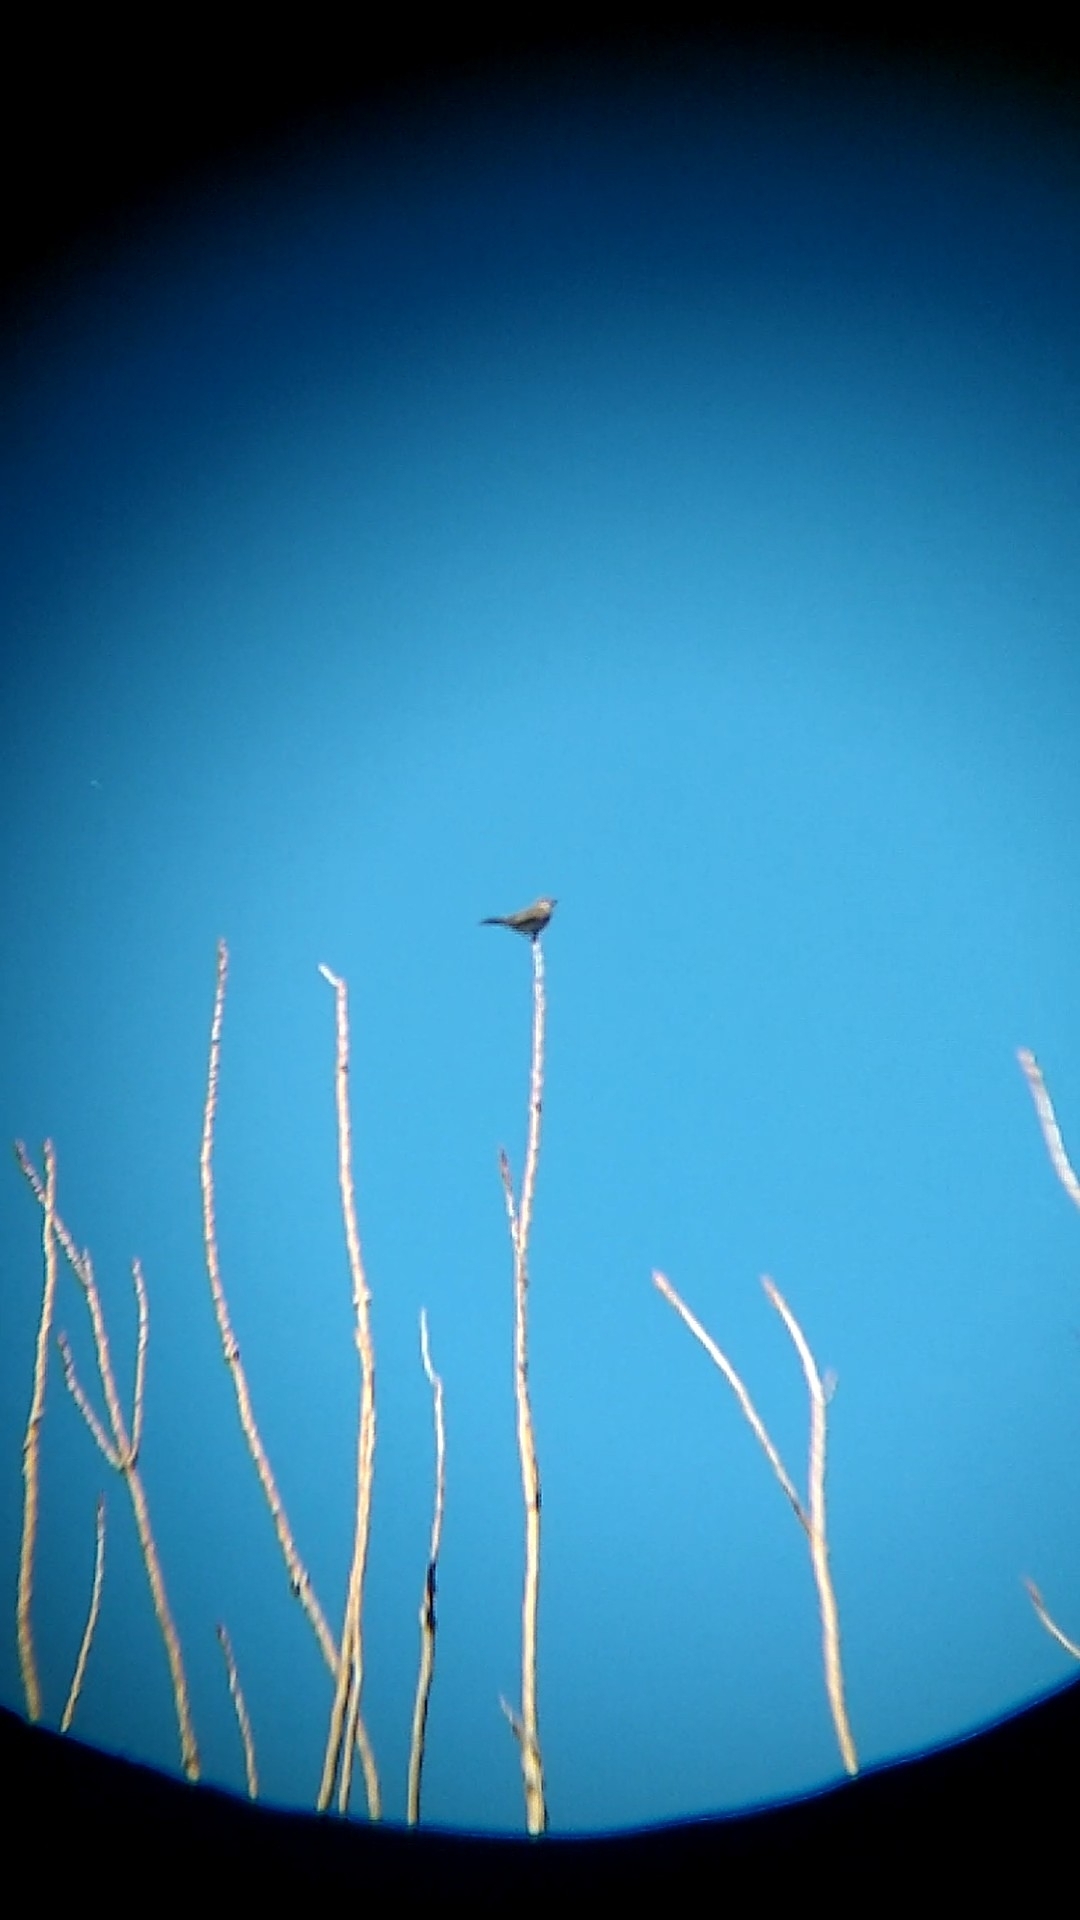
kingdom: Animalia
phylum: Chordata
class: Aves
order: Passeriformes
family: Tyrannidae
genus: Empidonomus
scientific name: Empidonomus aurantioatrocristatus
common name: Crowned slaty flycatcher
